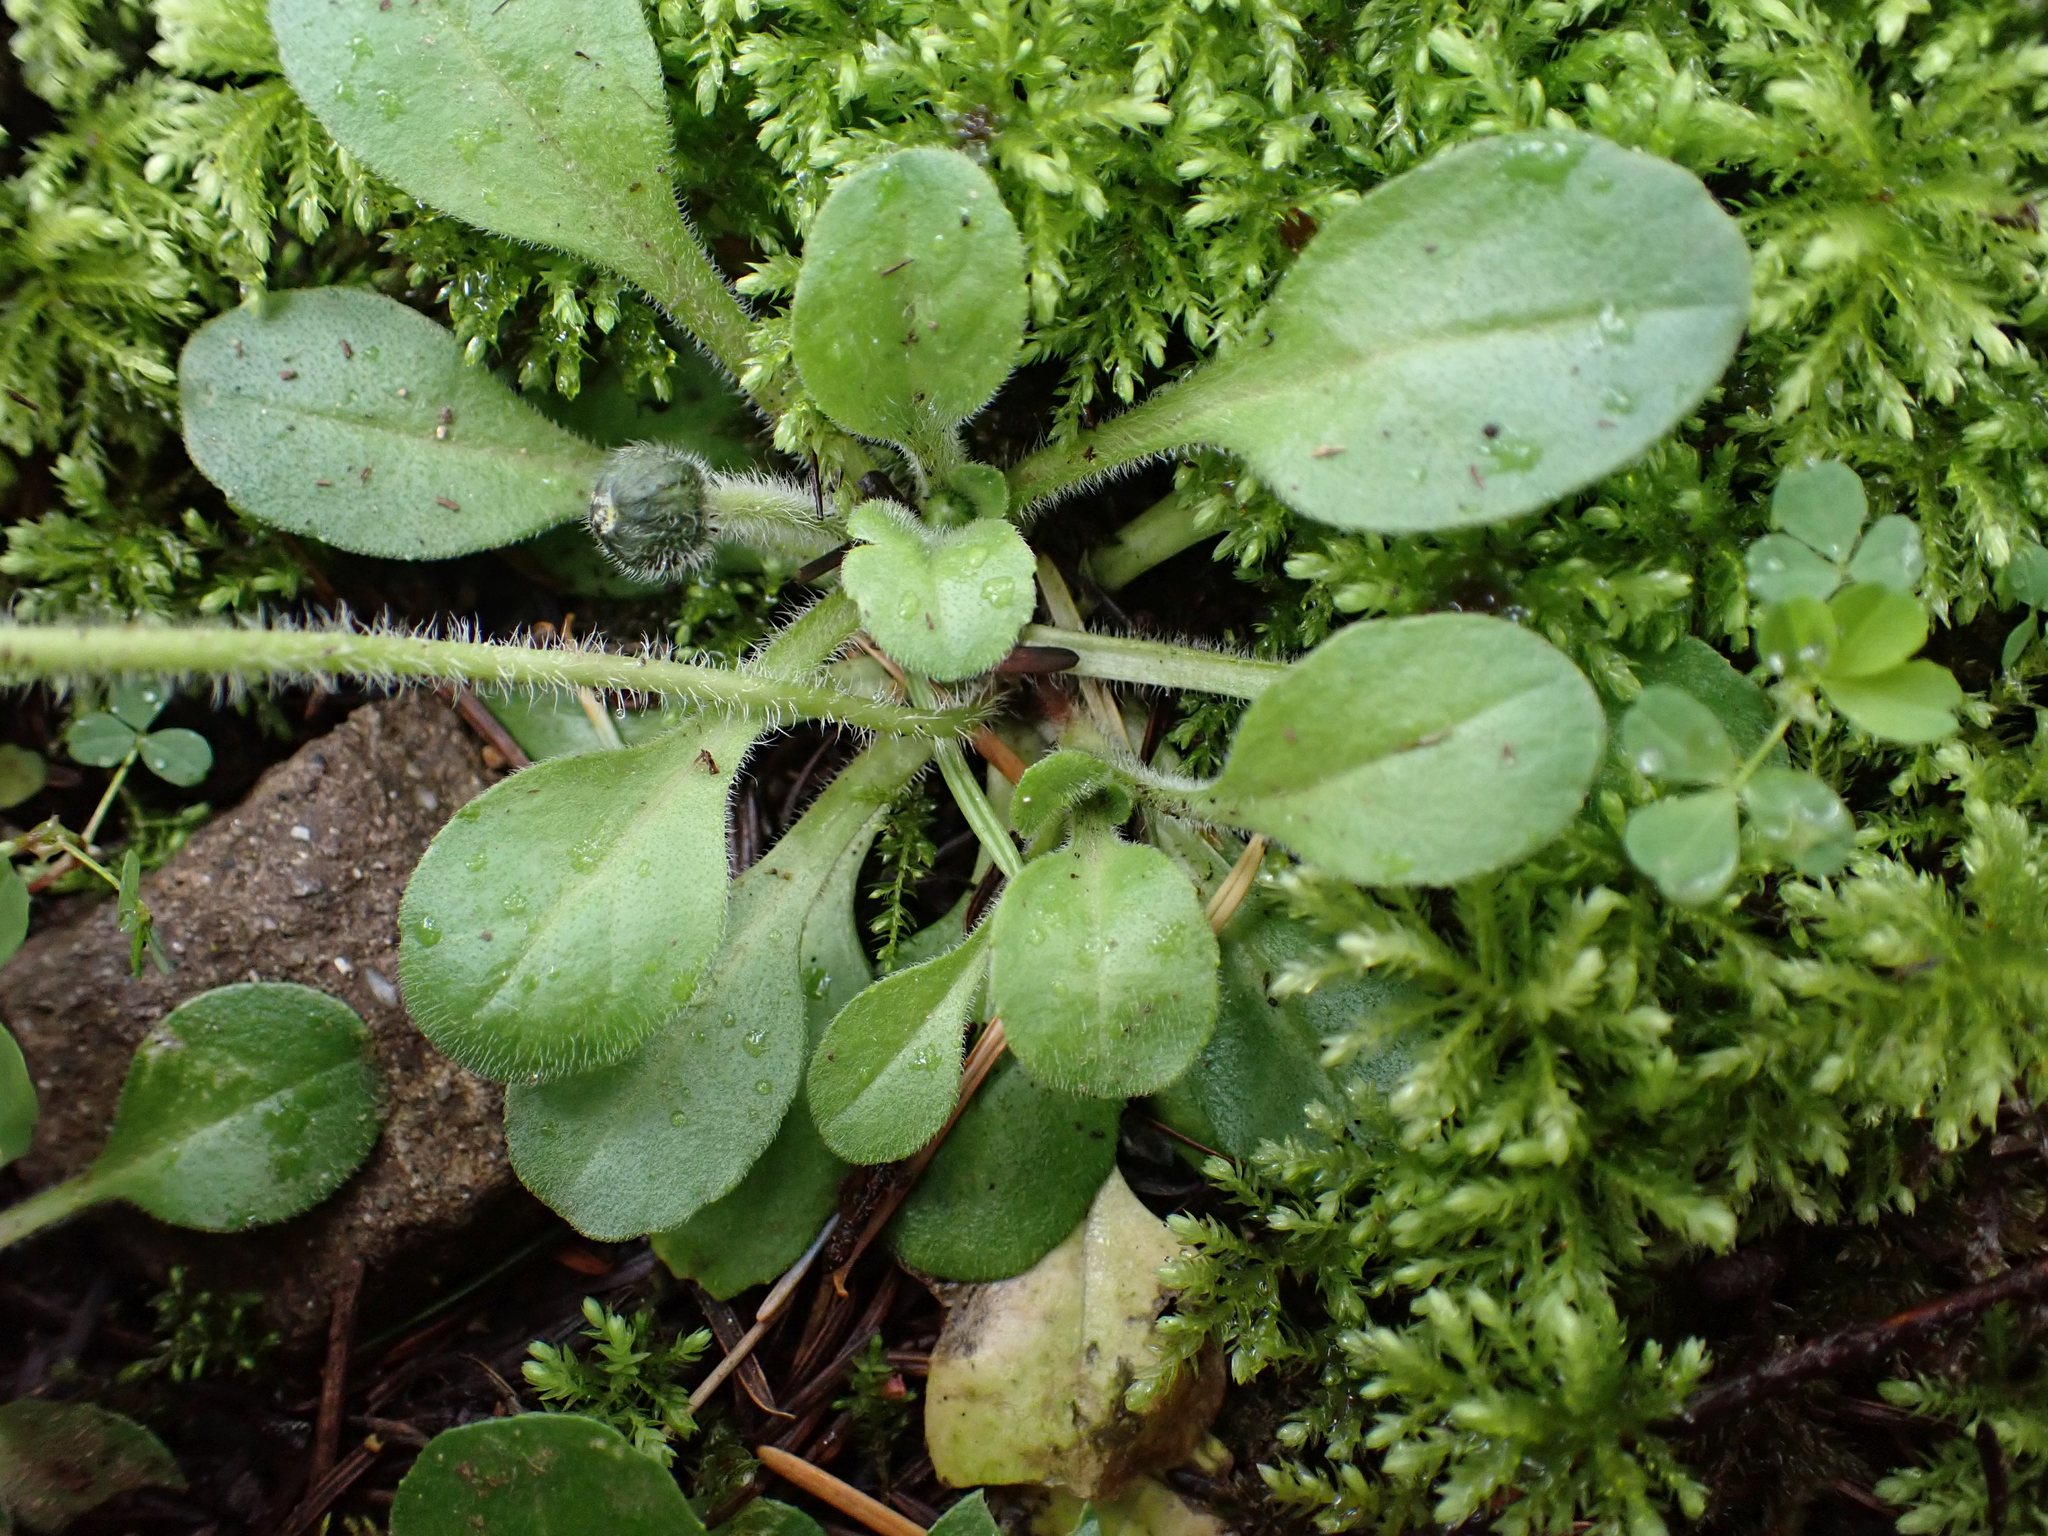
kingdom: Plantae
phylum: Tracheophyta
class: Magnoliopsida
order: Asterales
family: Asteraceae
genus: Bellis
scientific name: Bellis perennis
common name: Lawndaisy
